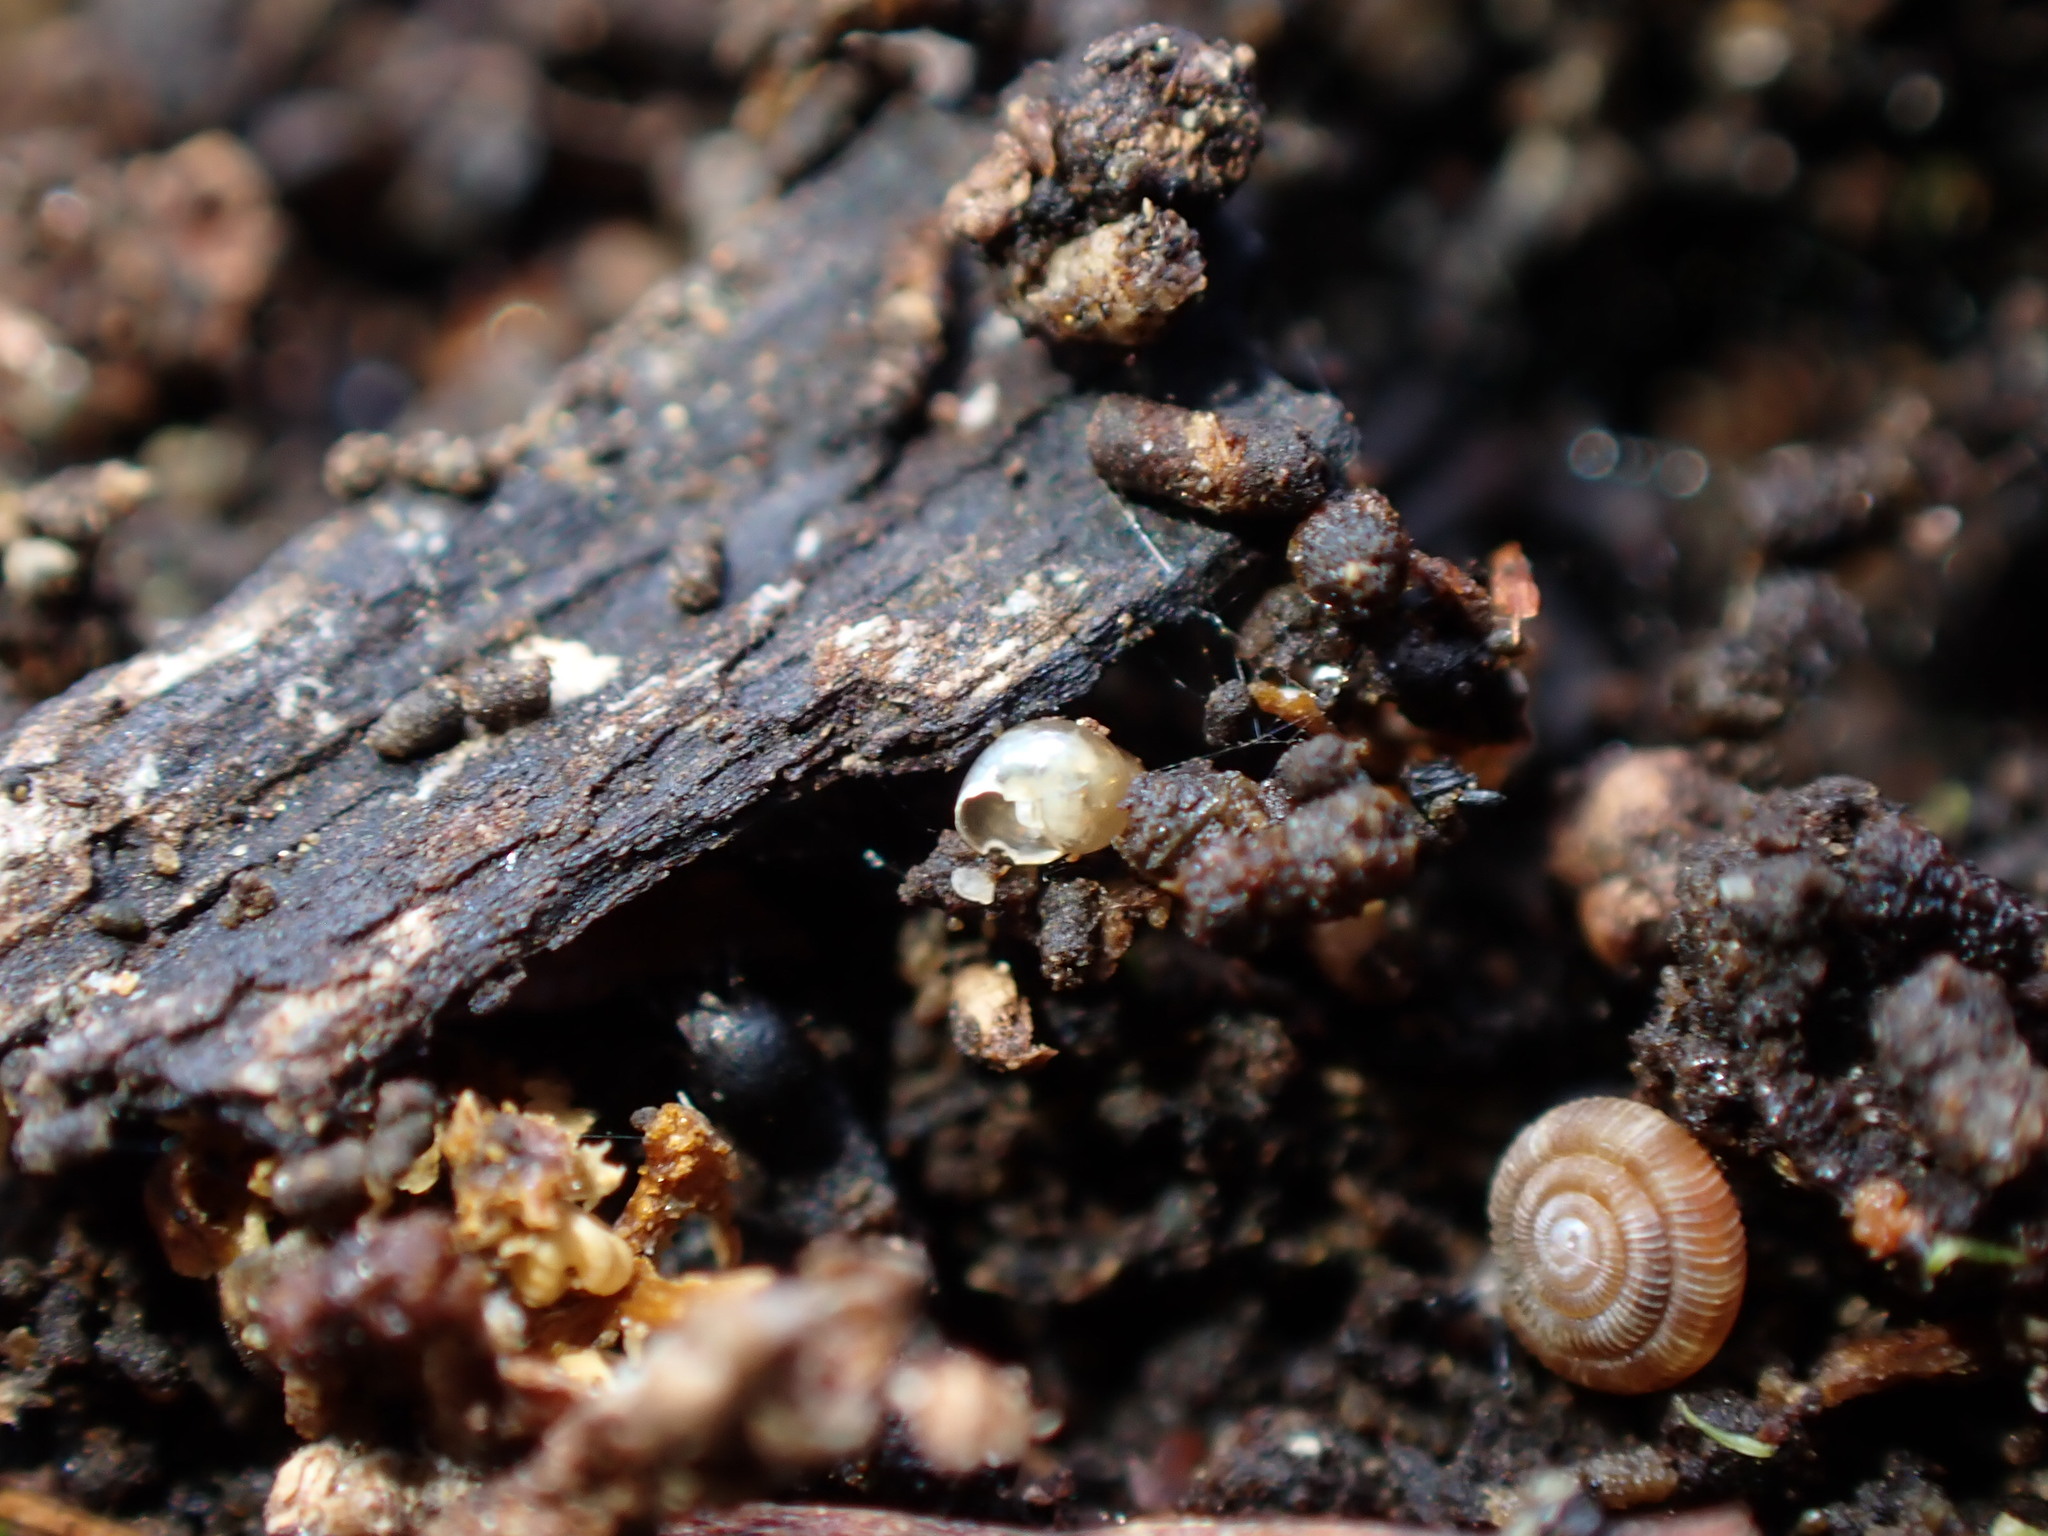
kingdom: Animalia
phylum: Mollusca
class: Gastropoda
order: Stylommatophora
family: Achatinellidae
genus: Tornatellinops
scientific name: Tornatellinops novoseelandicus
